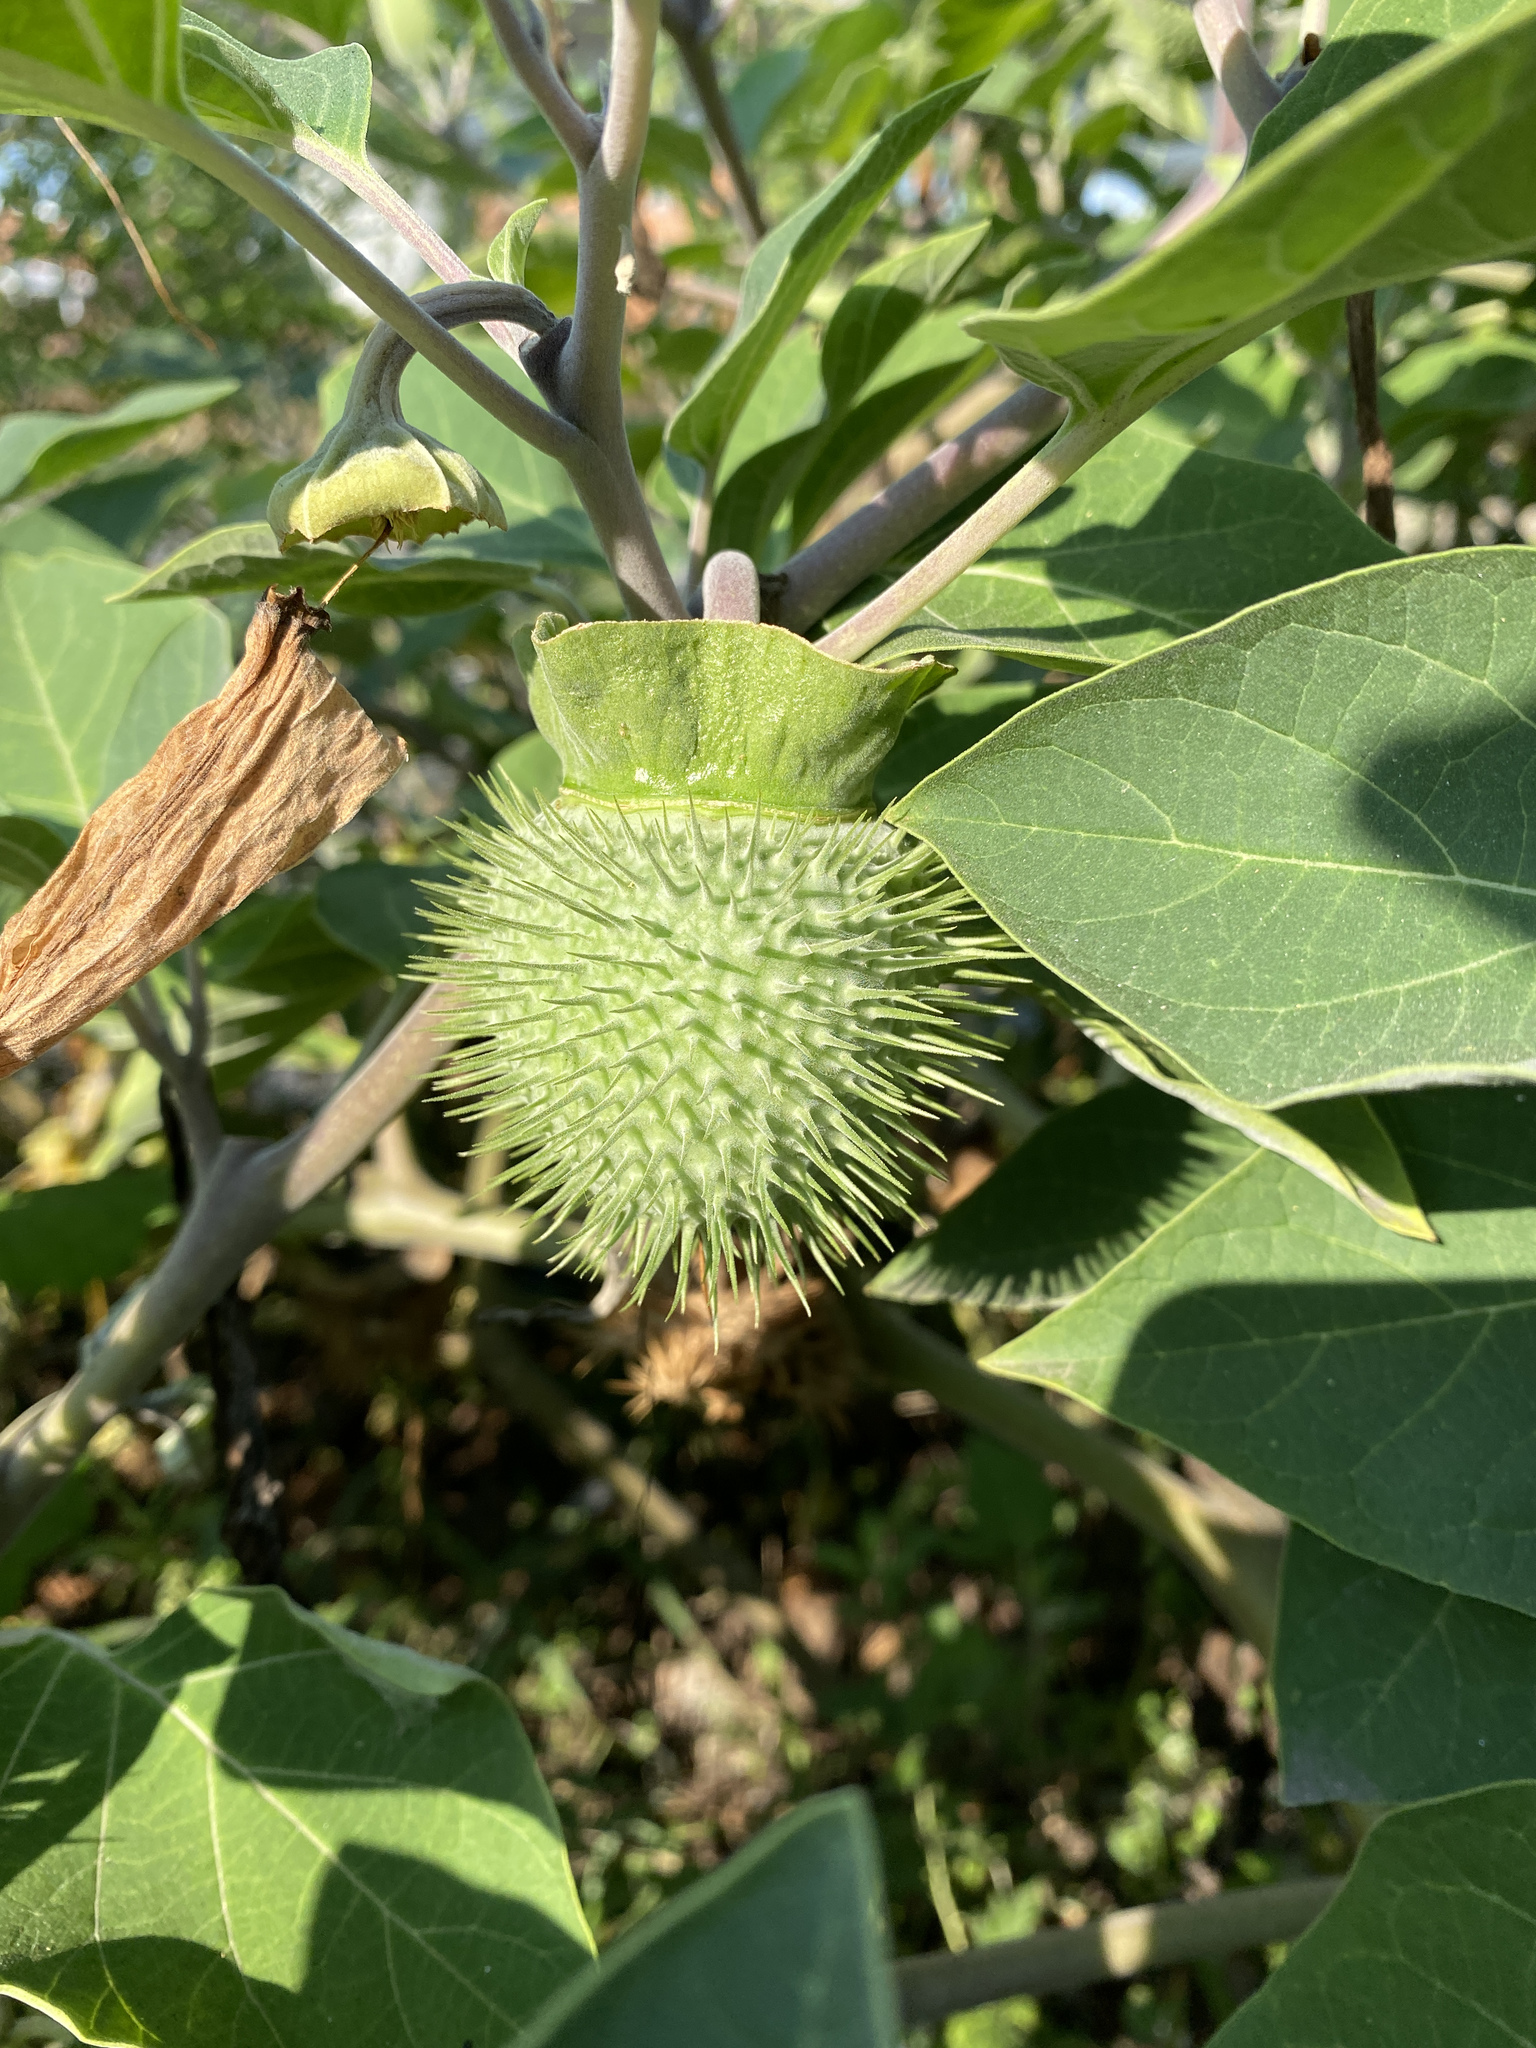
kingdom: Plantae
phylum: Tracheophyta
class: Magnoliopsida
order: Solanales
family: Solanaceae
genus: Datura
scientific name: Datura innoxia
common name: Downy thorn-apple
